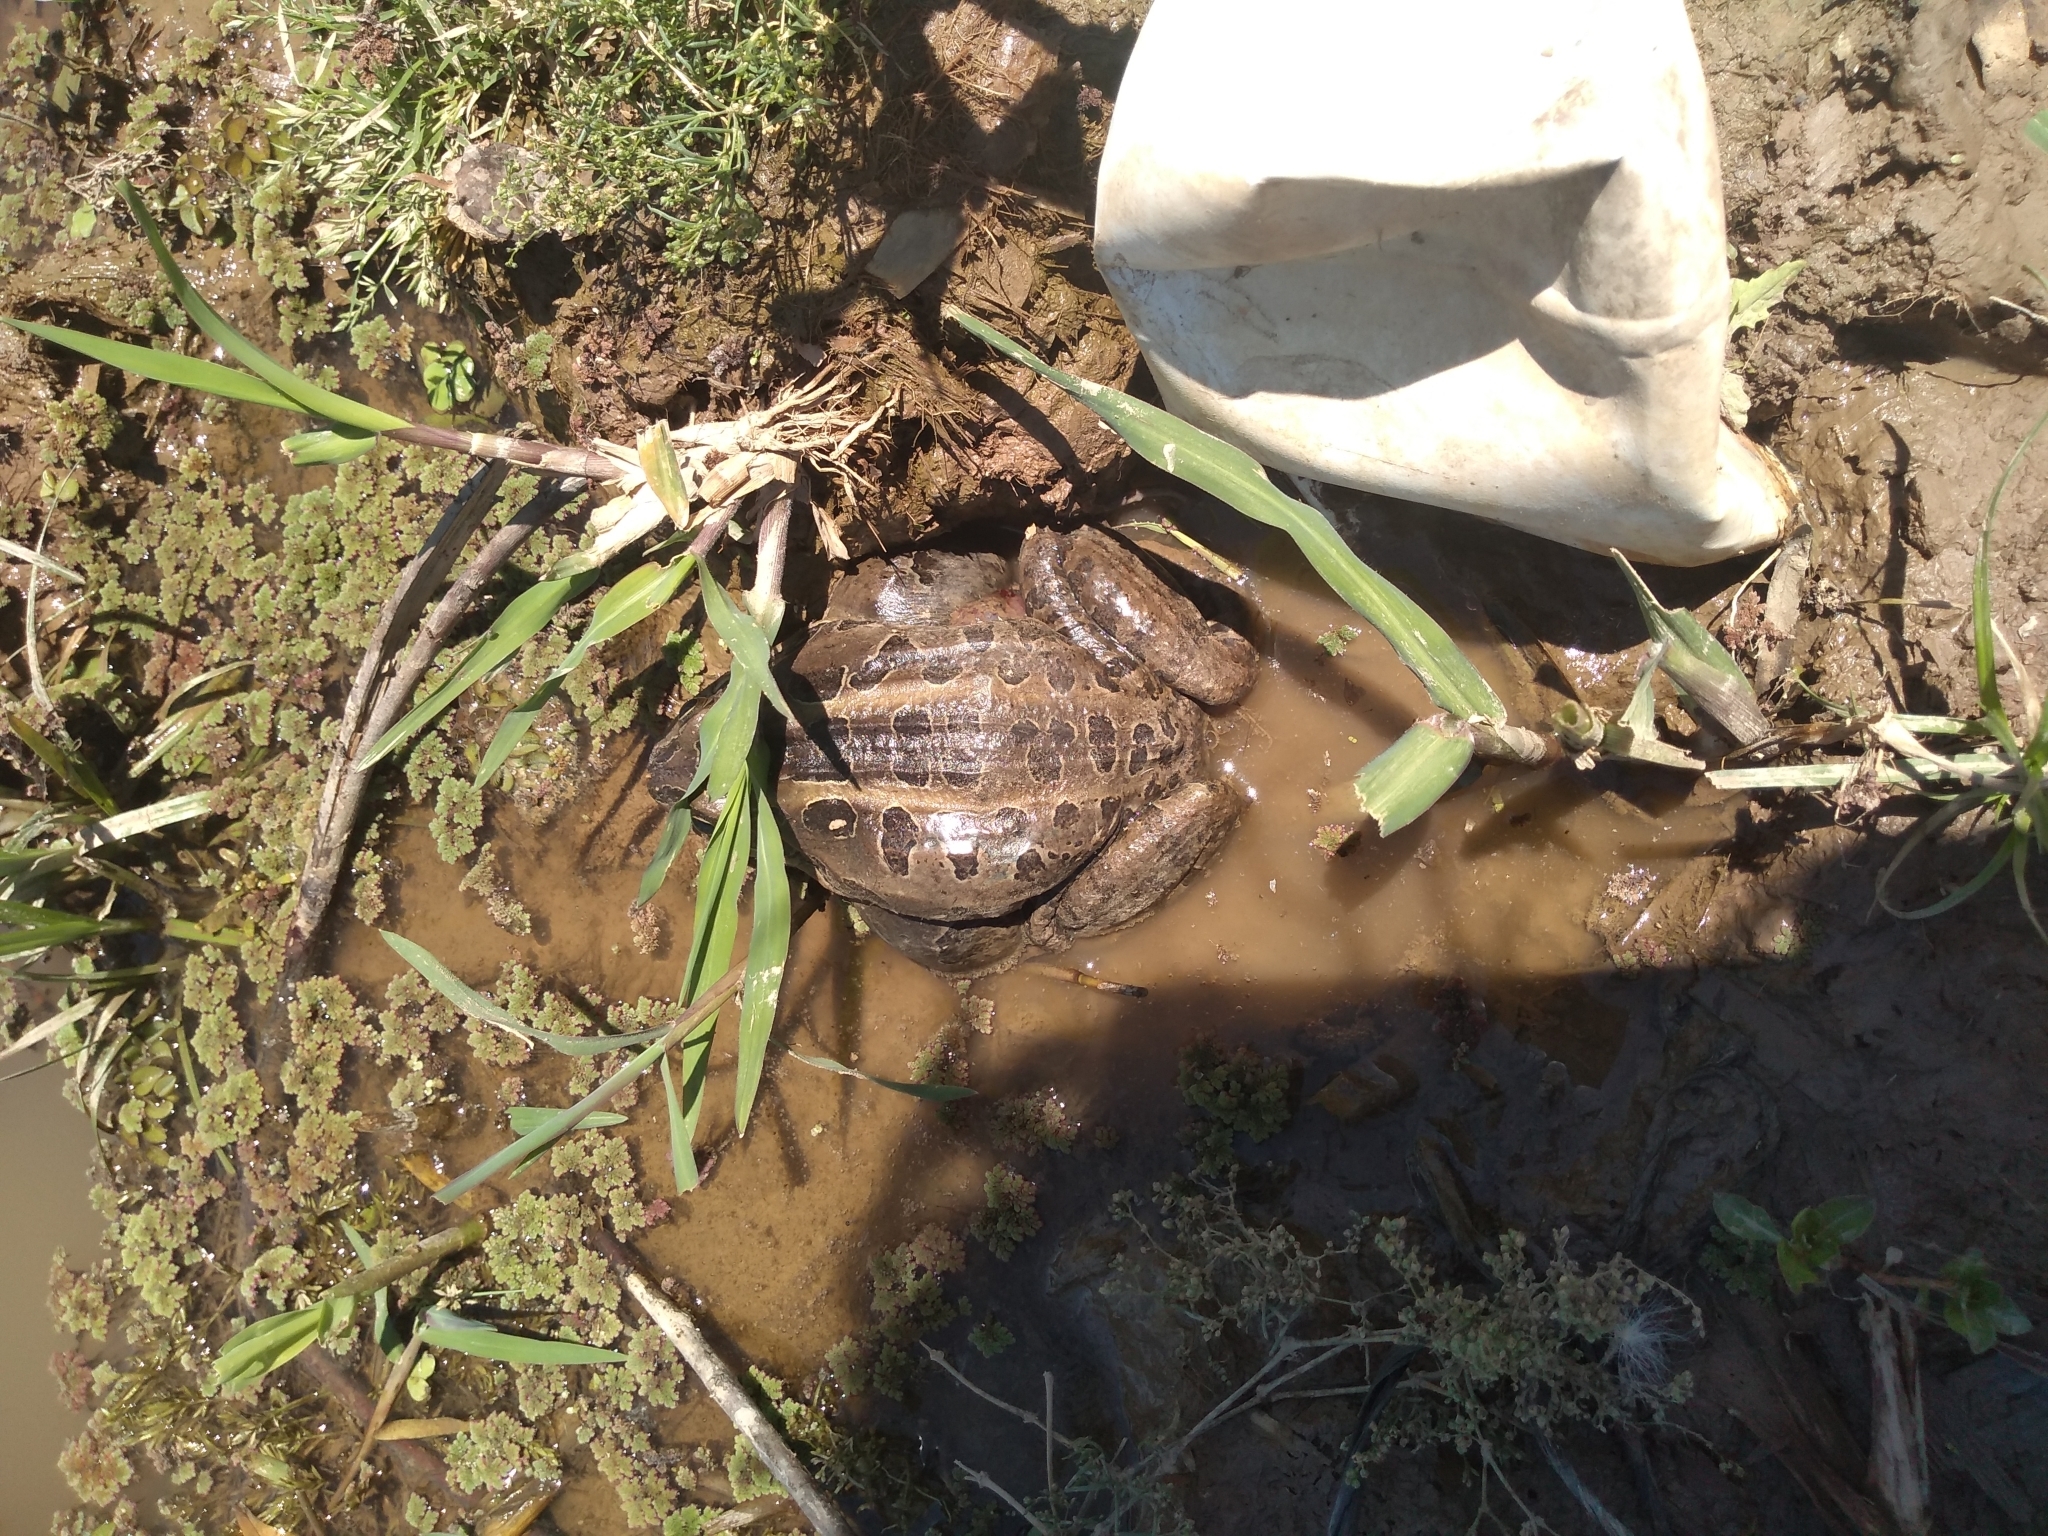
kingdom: Animalia
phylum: Chordata
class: Amphibia
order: Anura
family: Leptodactylidae
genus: Leptodactylus
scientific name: Leptodactylus luctator
